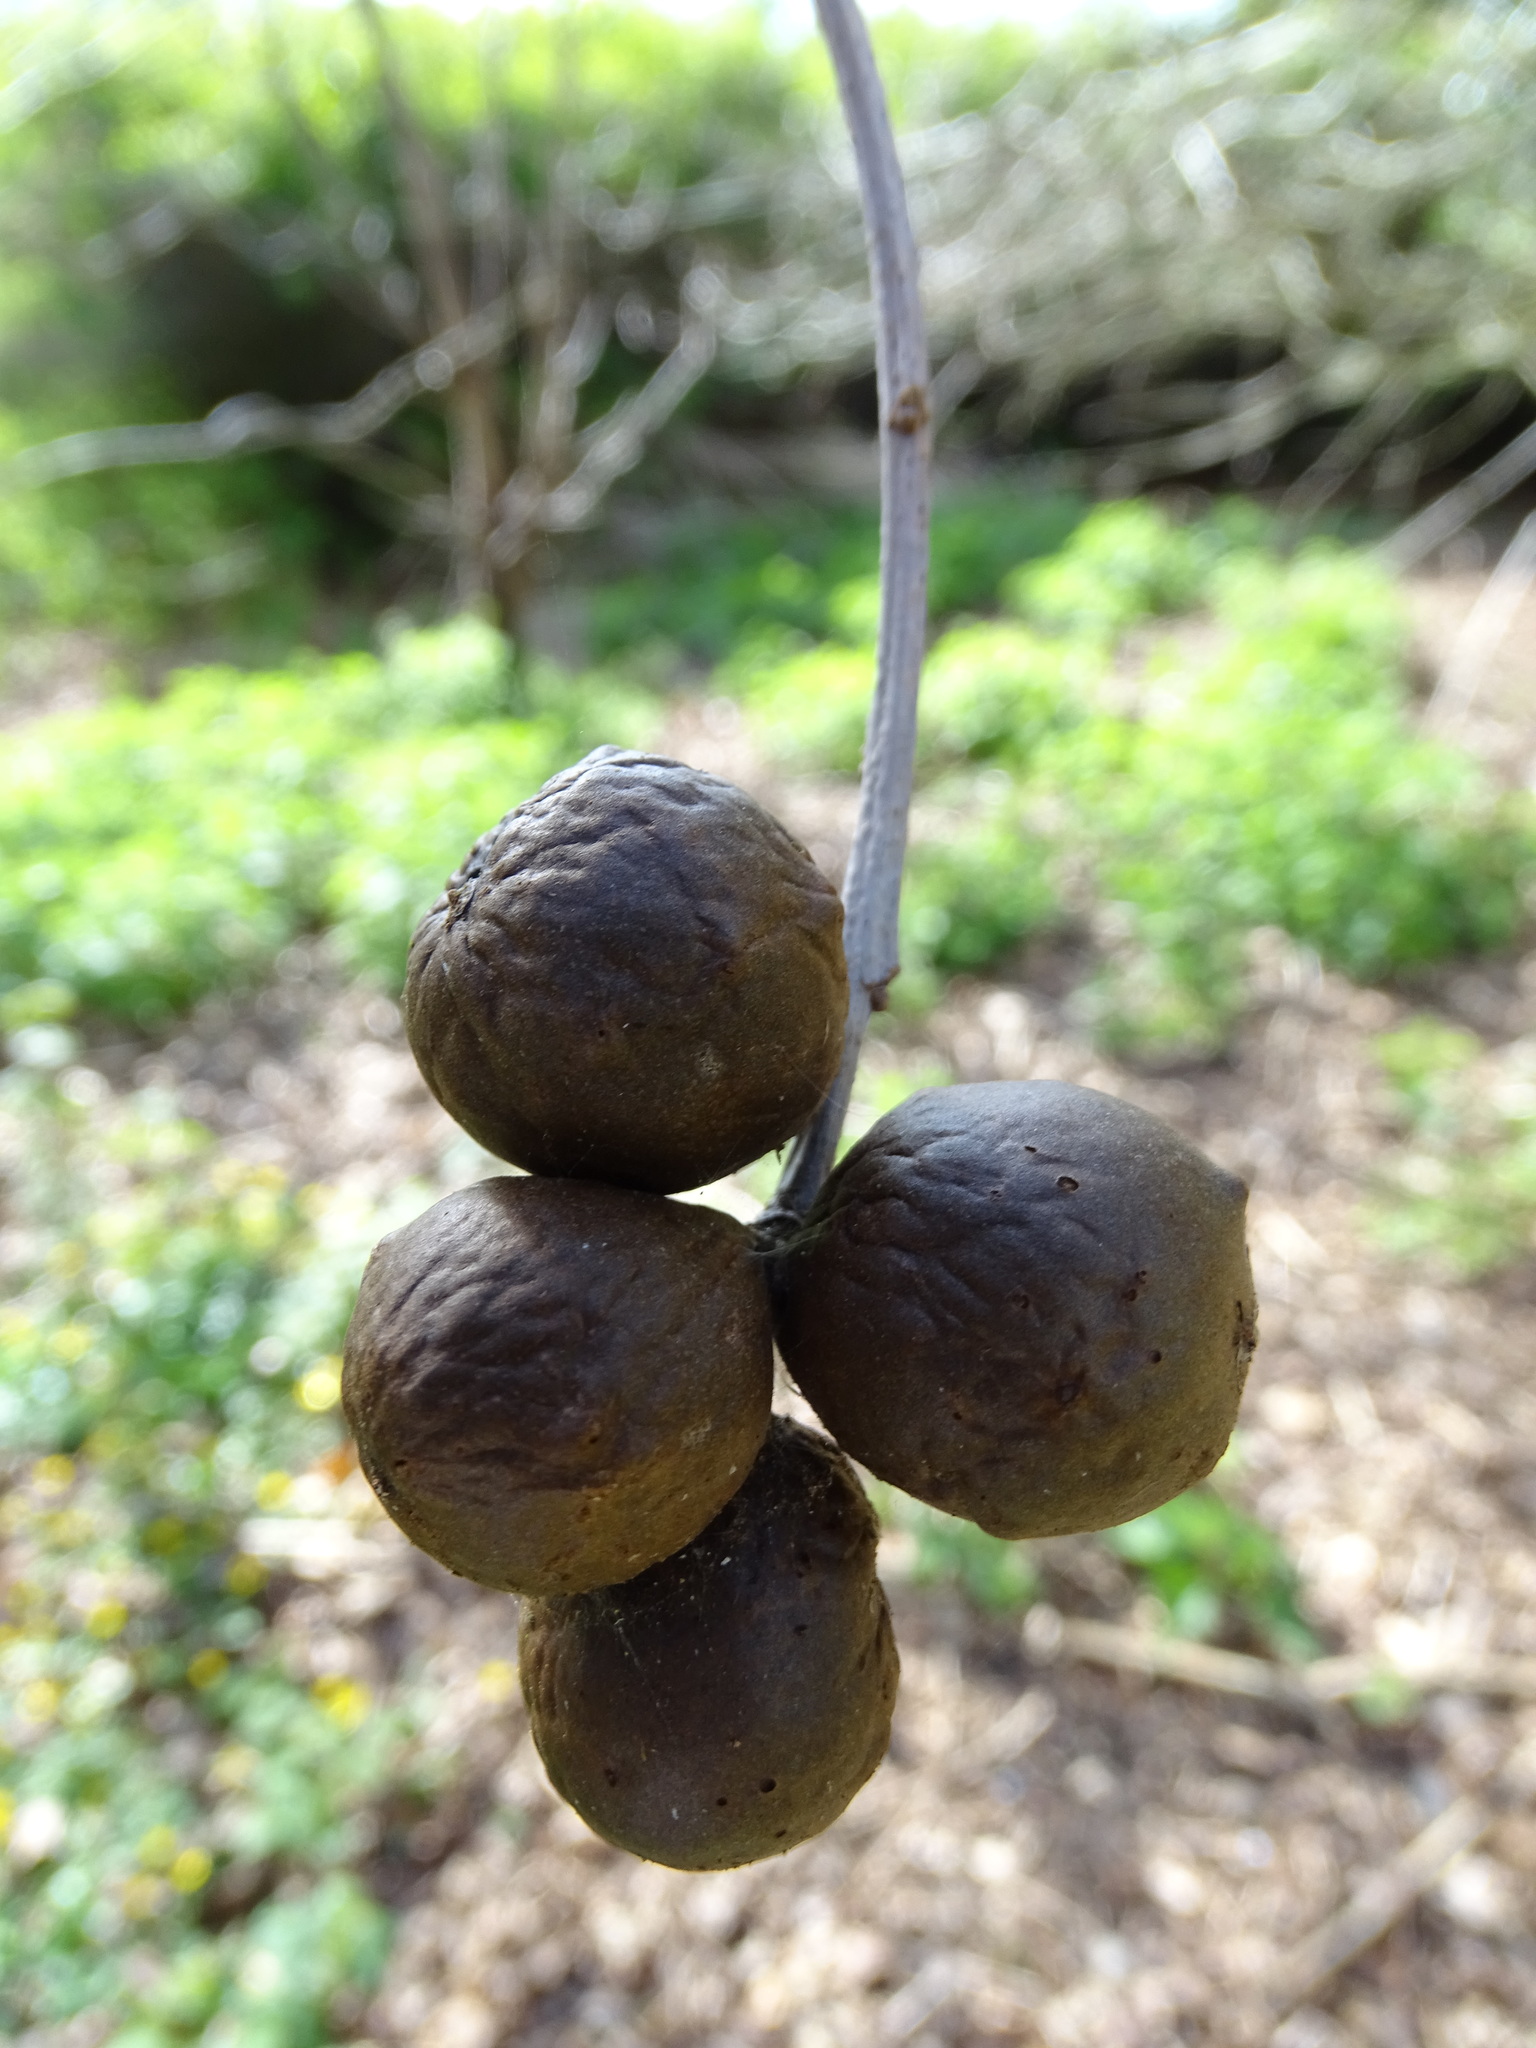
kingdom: Animalia
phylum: Arthropoda
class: Insecta
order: Hymenoptera
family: Cynipidae
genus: Andricus
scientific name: Andricus kollari
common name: Marble gall
